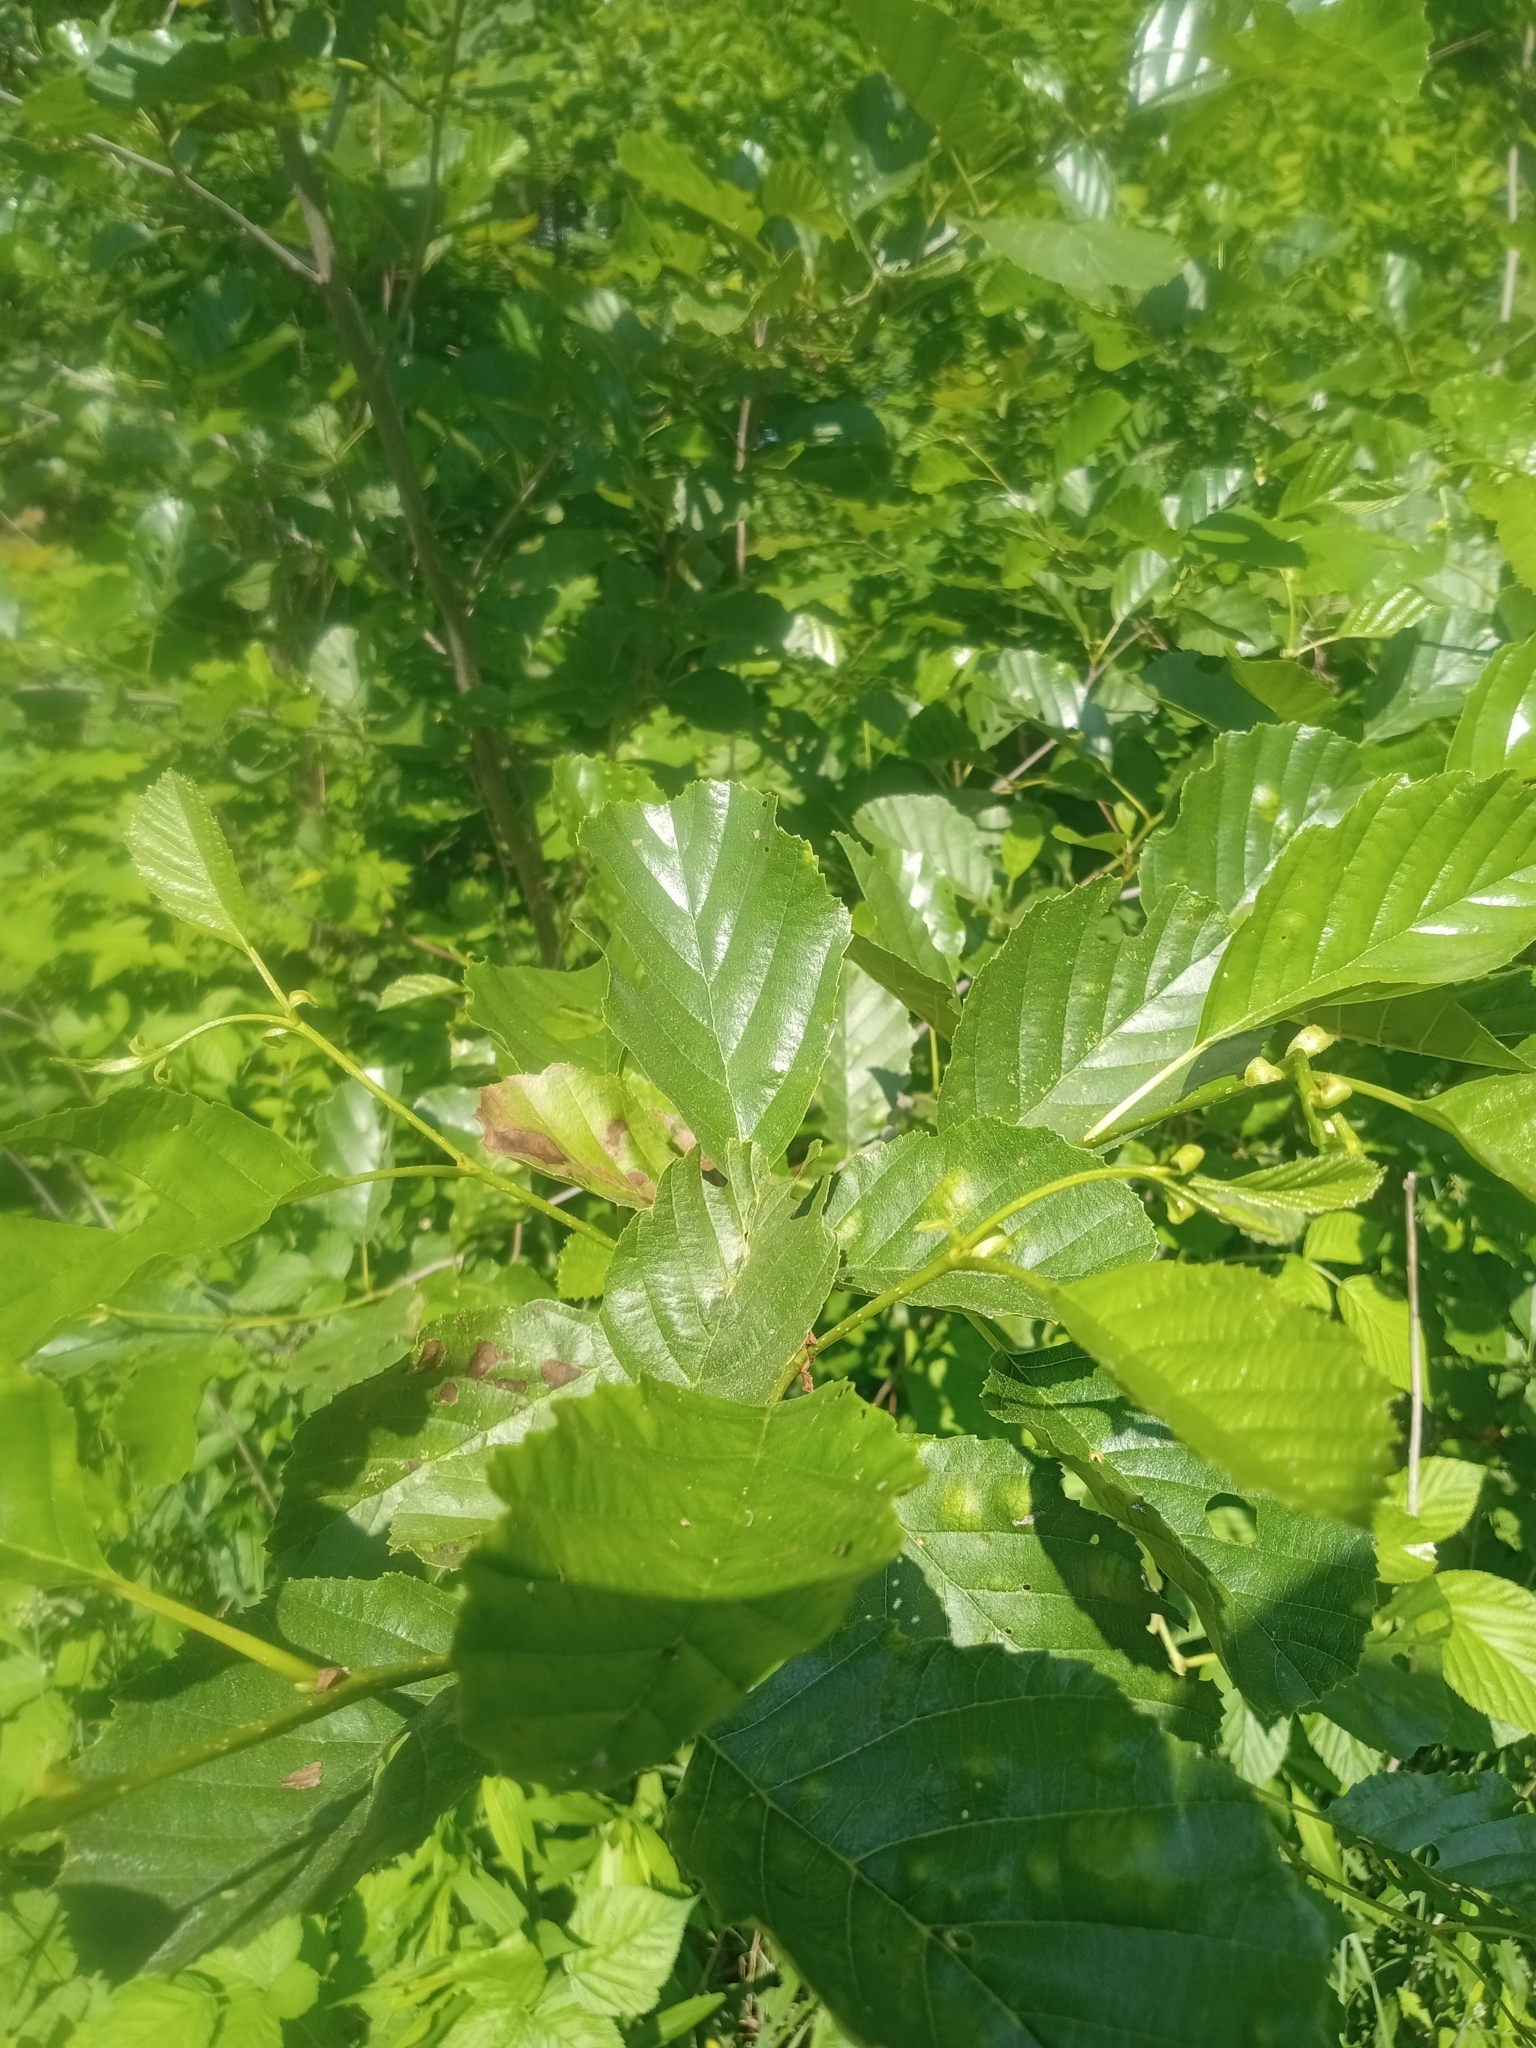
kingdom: Plantae
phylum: Tracheophyta
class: Magnoliopsida
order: Fagales
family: Betulaceae
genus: Alnus
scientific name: Alnus glutinosa
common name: Black alder
